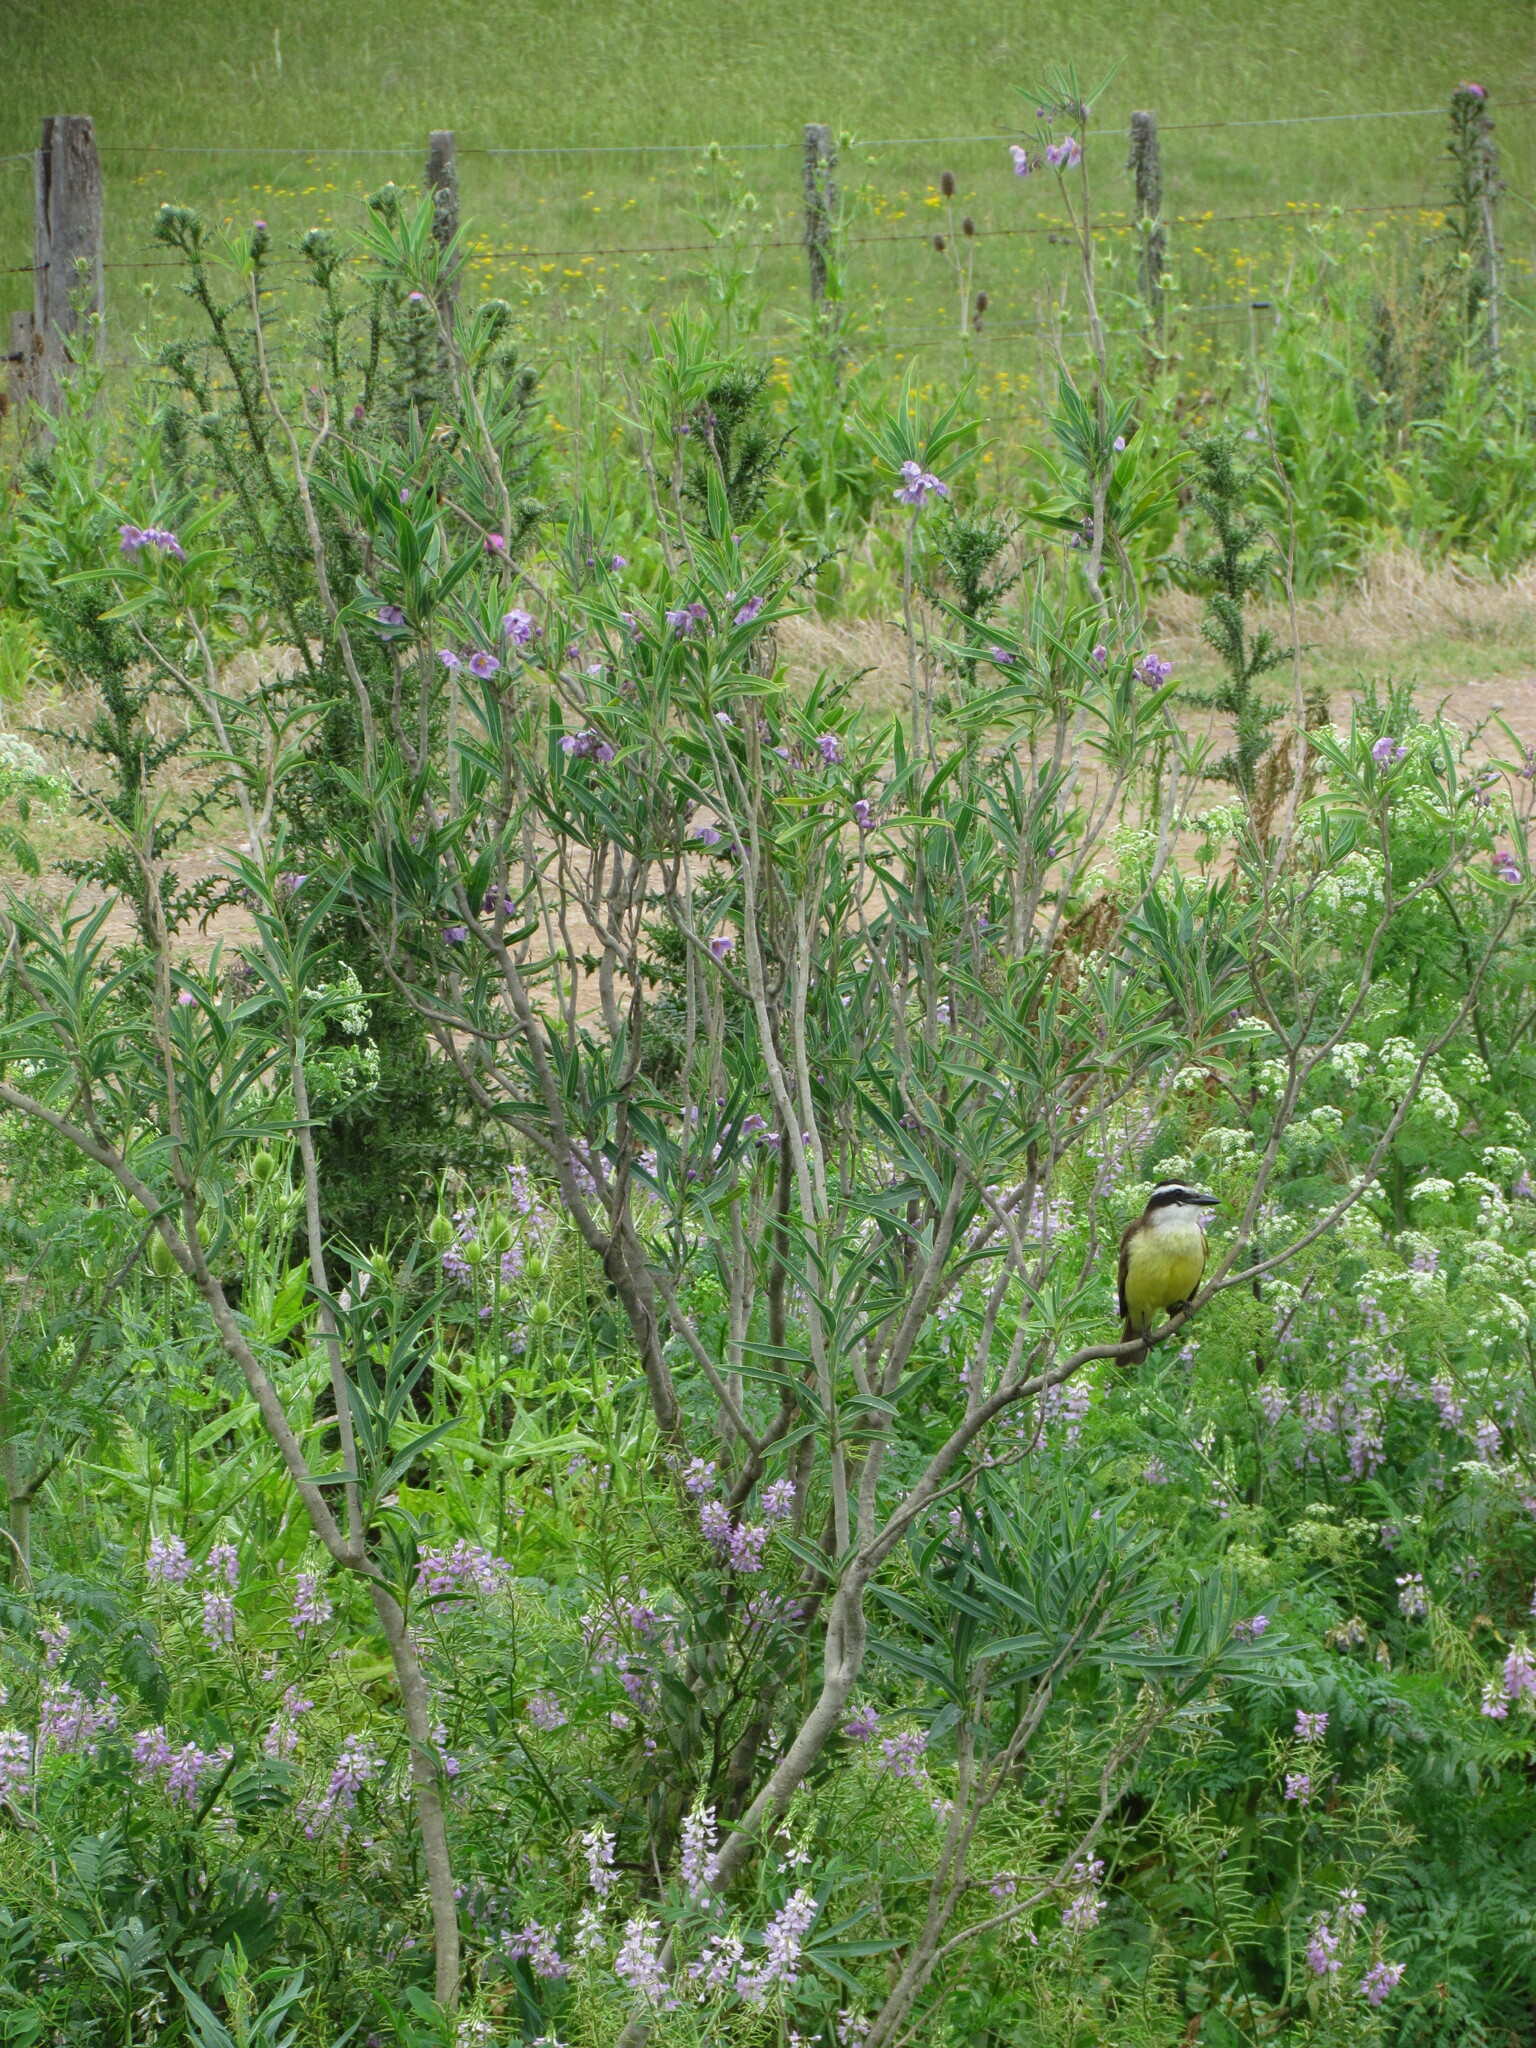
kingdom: Plantae
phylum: Tracheophyta
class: Magnoliopsida
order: Solanales
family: Solanaceae
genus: Solanum
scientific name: Solanum glaucophyllum
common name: Waxyleaf nightshade
